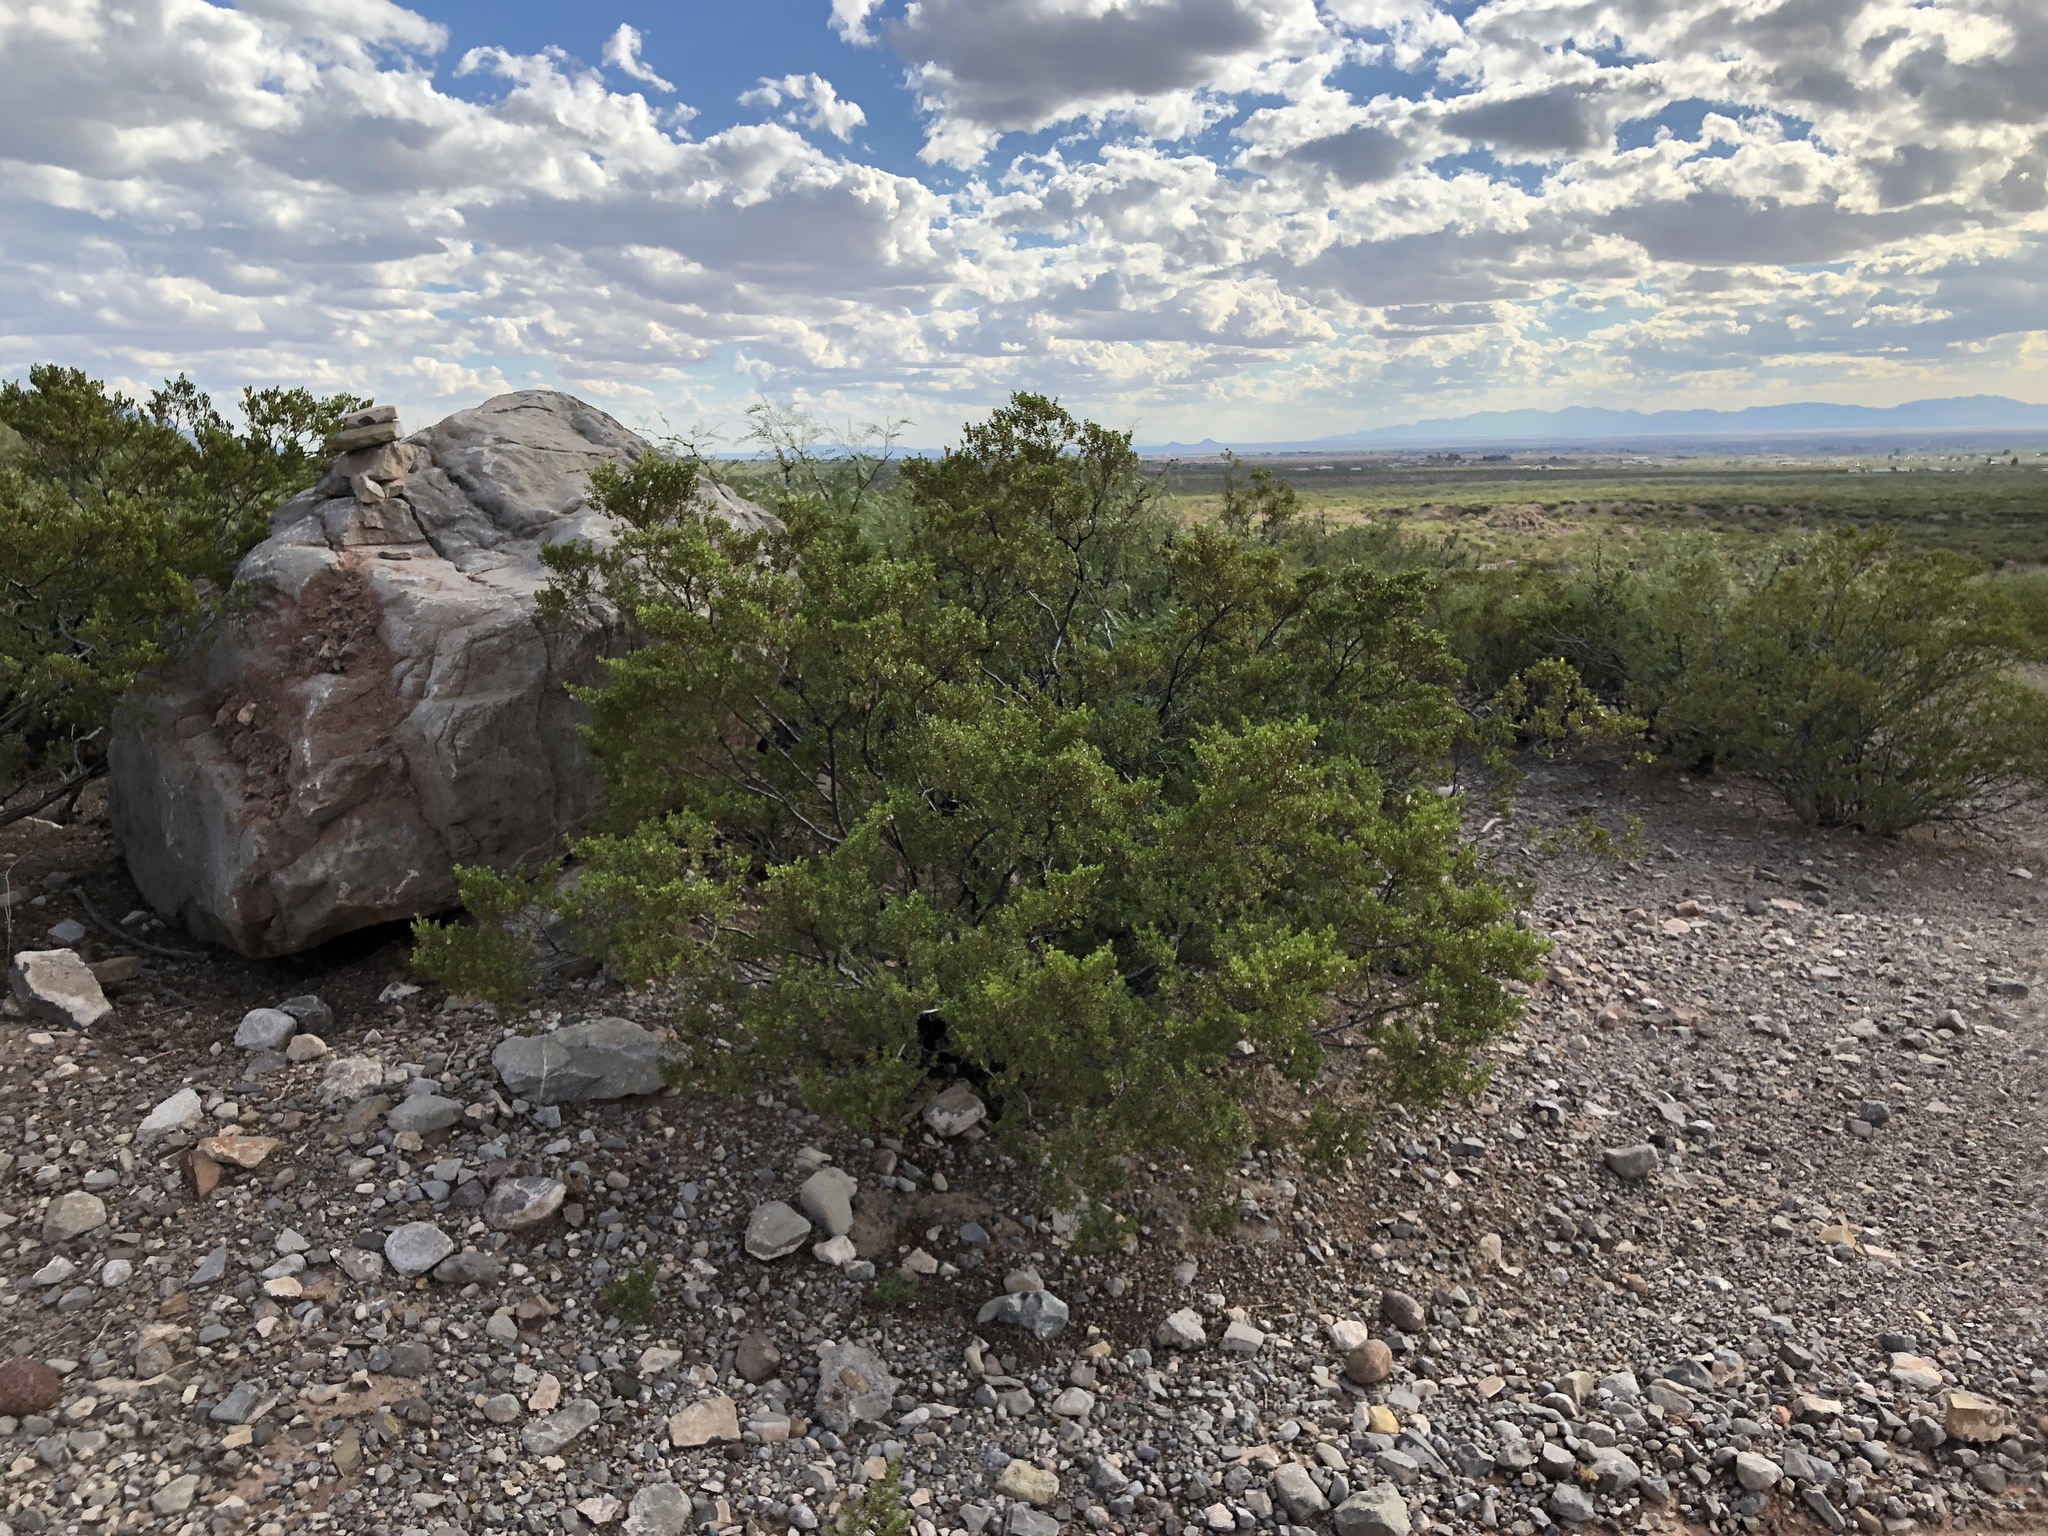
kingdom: Plantae
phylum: Tracheophyta
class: Magnoliopsida
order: Zygophyllales
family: Zygophyllaceae
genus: Larrea
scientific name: Larrea tridentata
